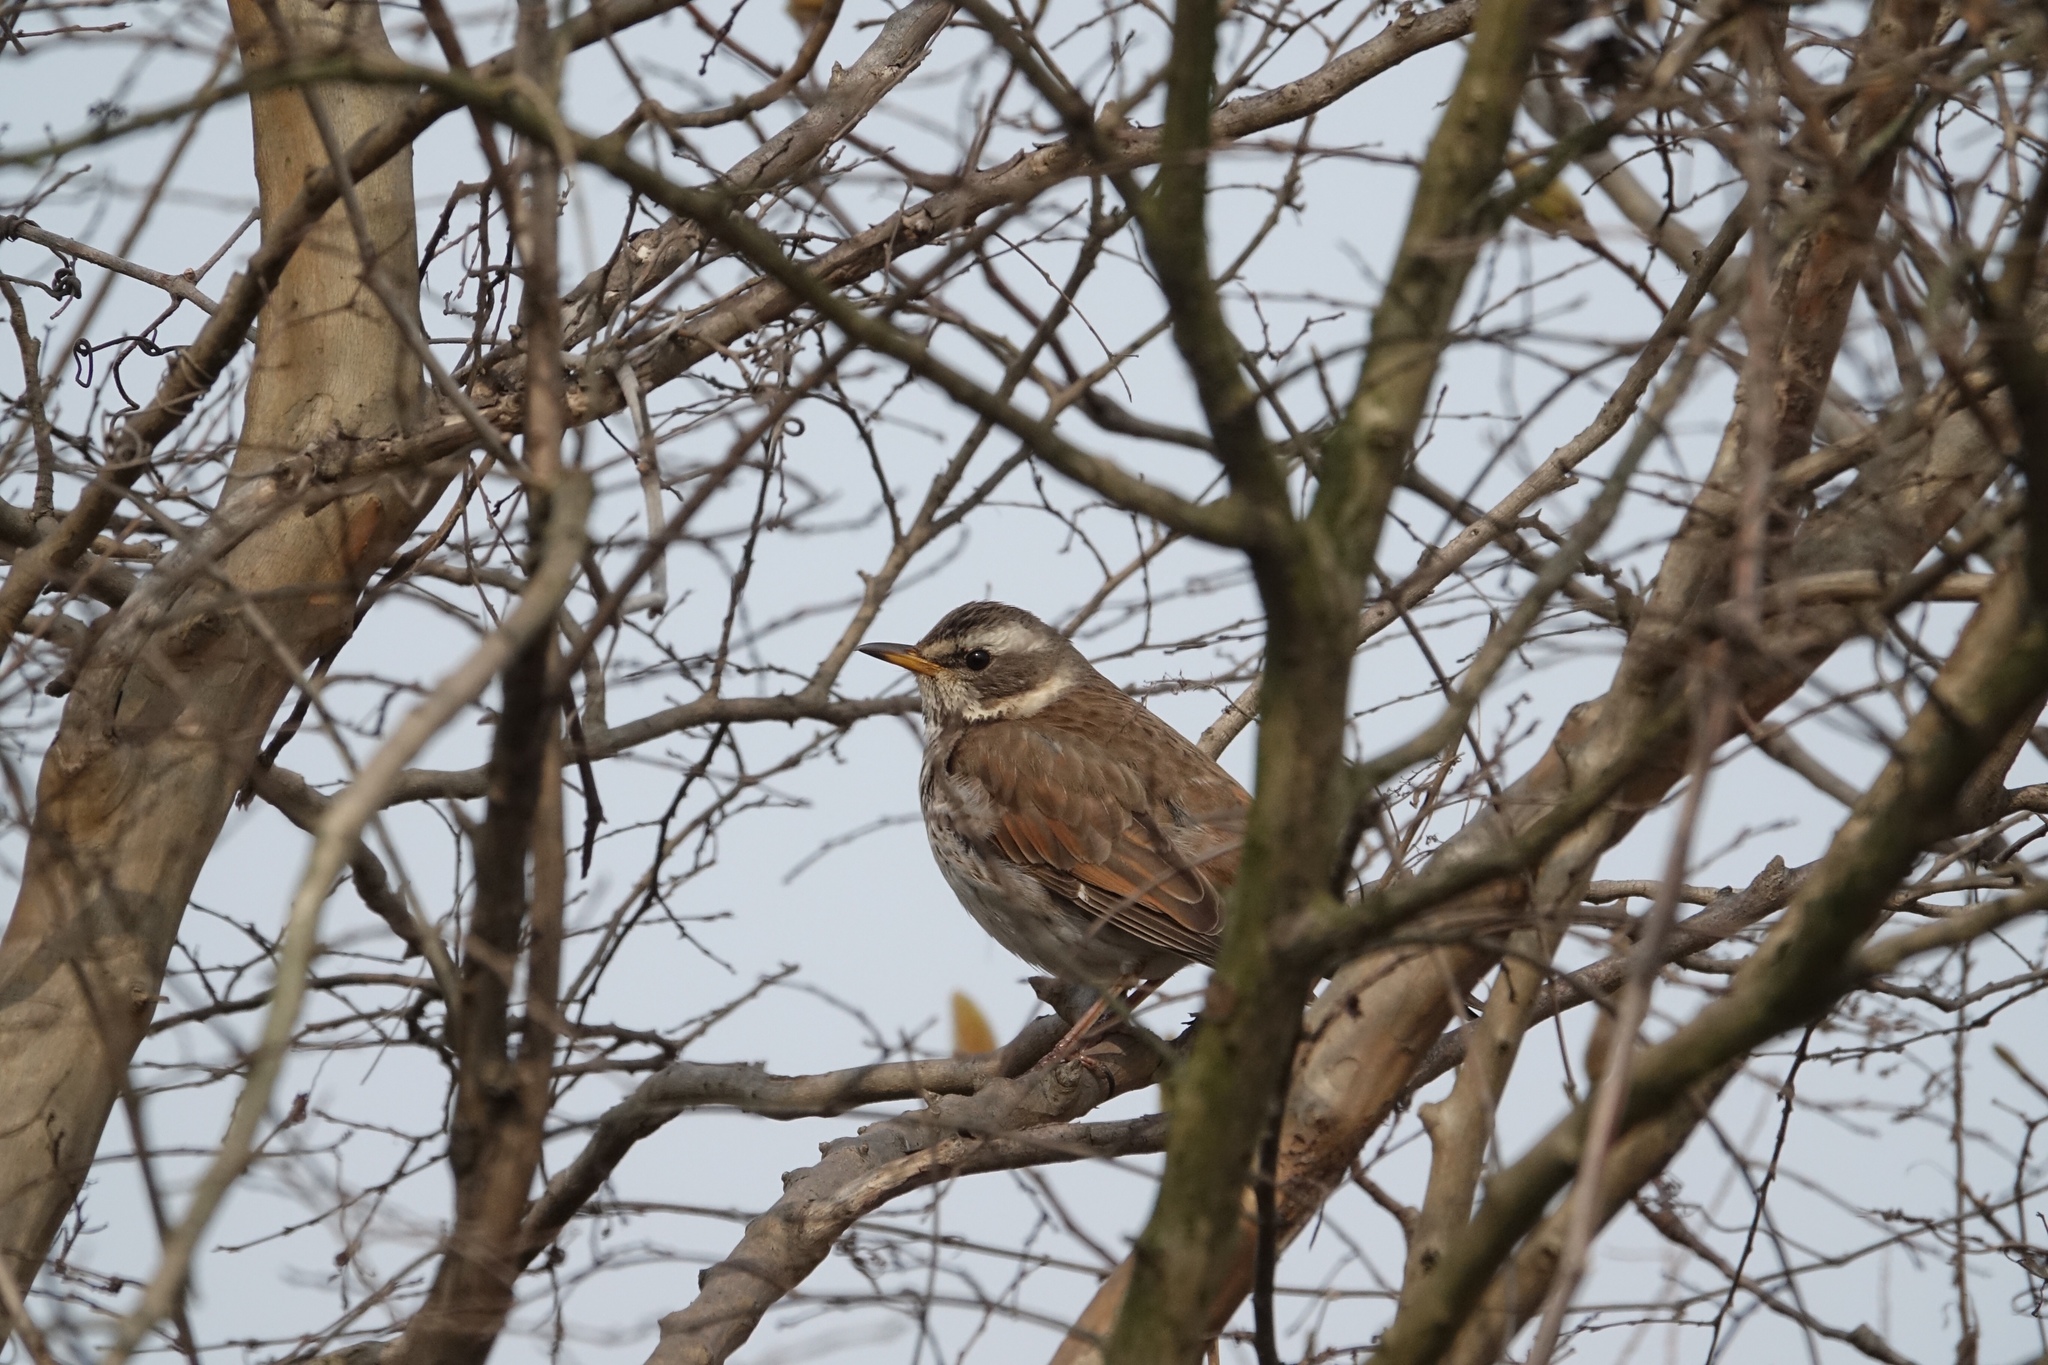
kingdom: Animalia
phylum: Chordata
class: Aves
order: Passeriformes
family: Turdidae
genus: Turdus
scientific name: Turdus eunomus
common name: Dusky thrush
